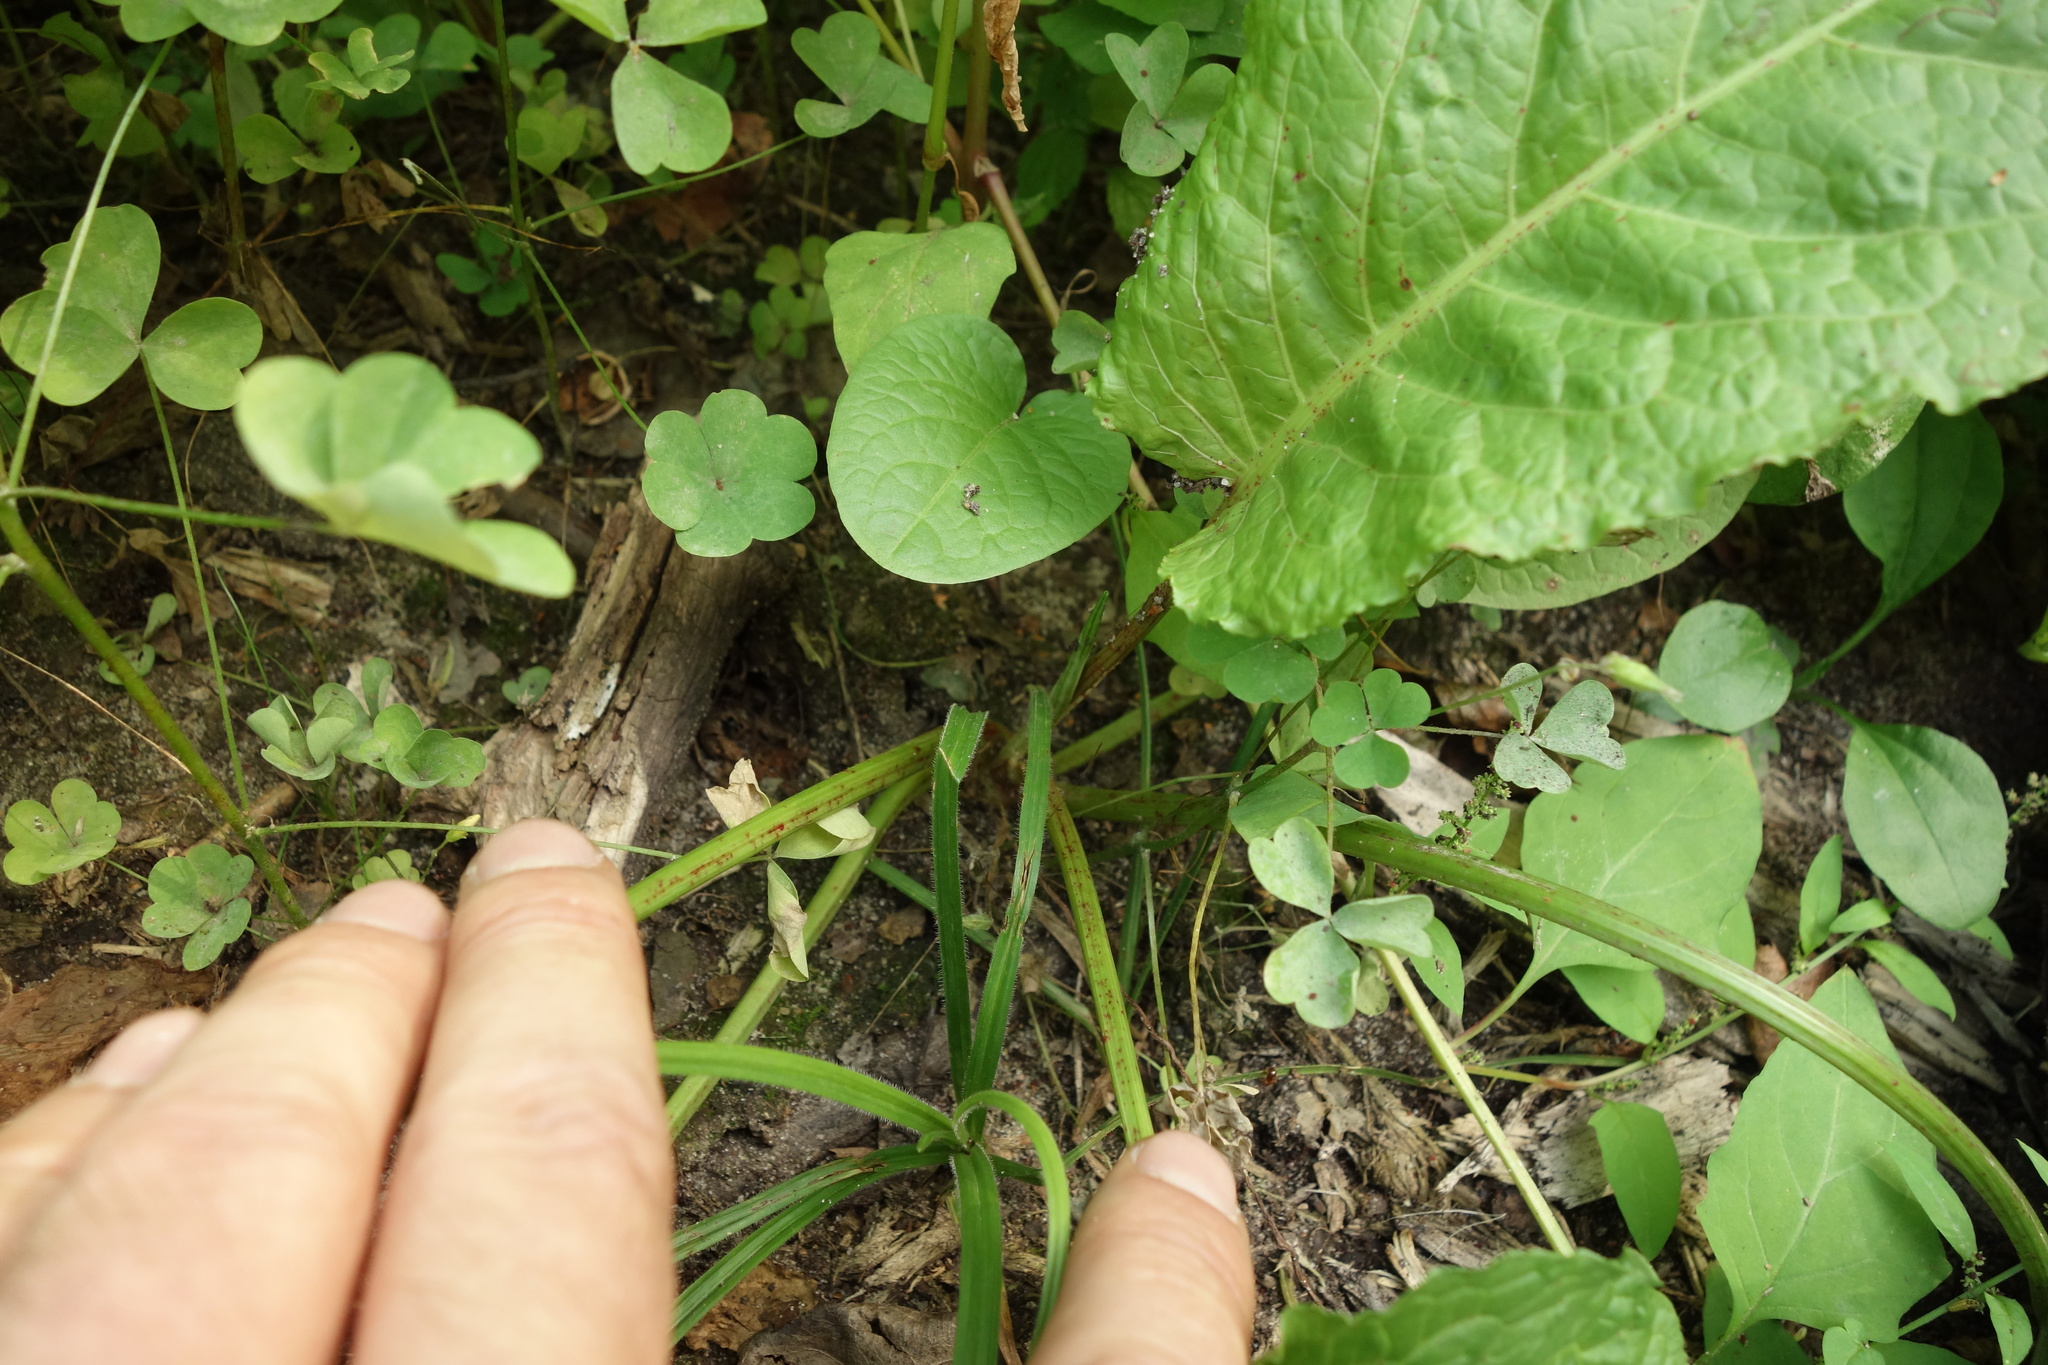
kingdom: Plantae
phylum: Tracheophyta
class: Magnoliopsida
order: Caryophyllales
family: Polygonaceae
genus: Rumex
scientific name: Rumex obtusifolius
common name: Bitter dock
